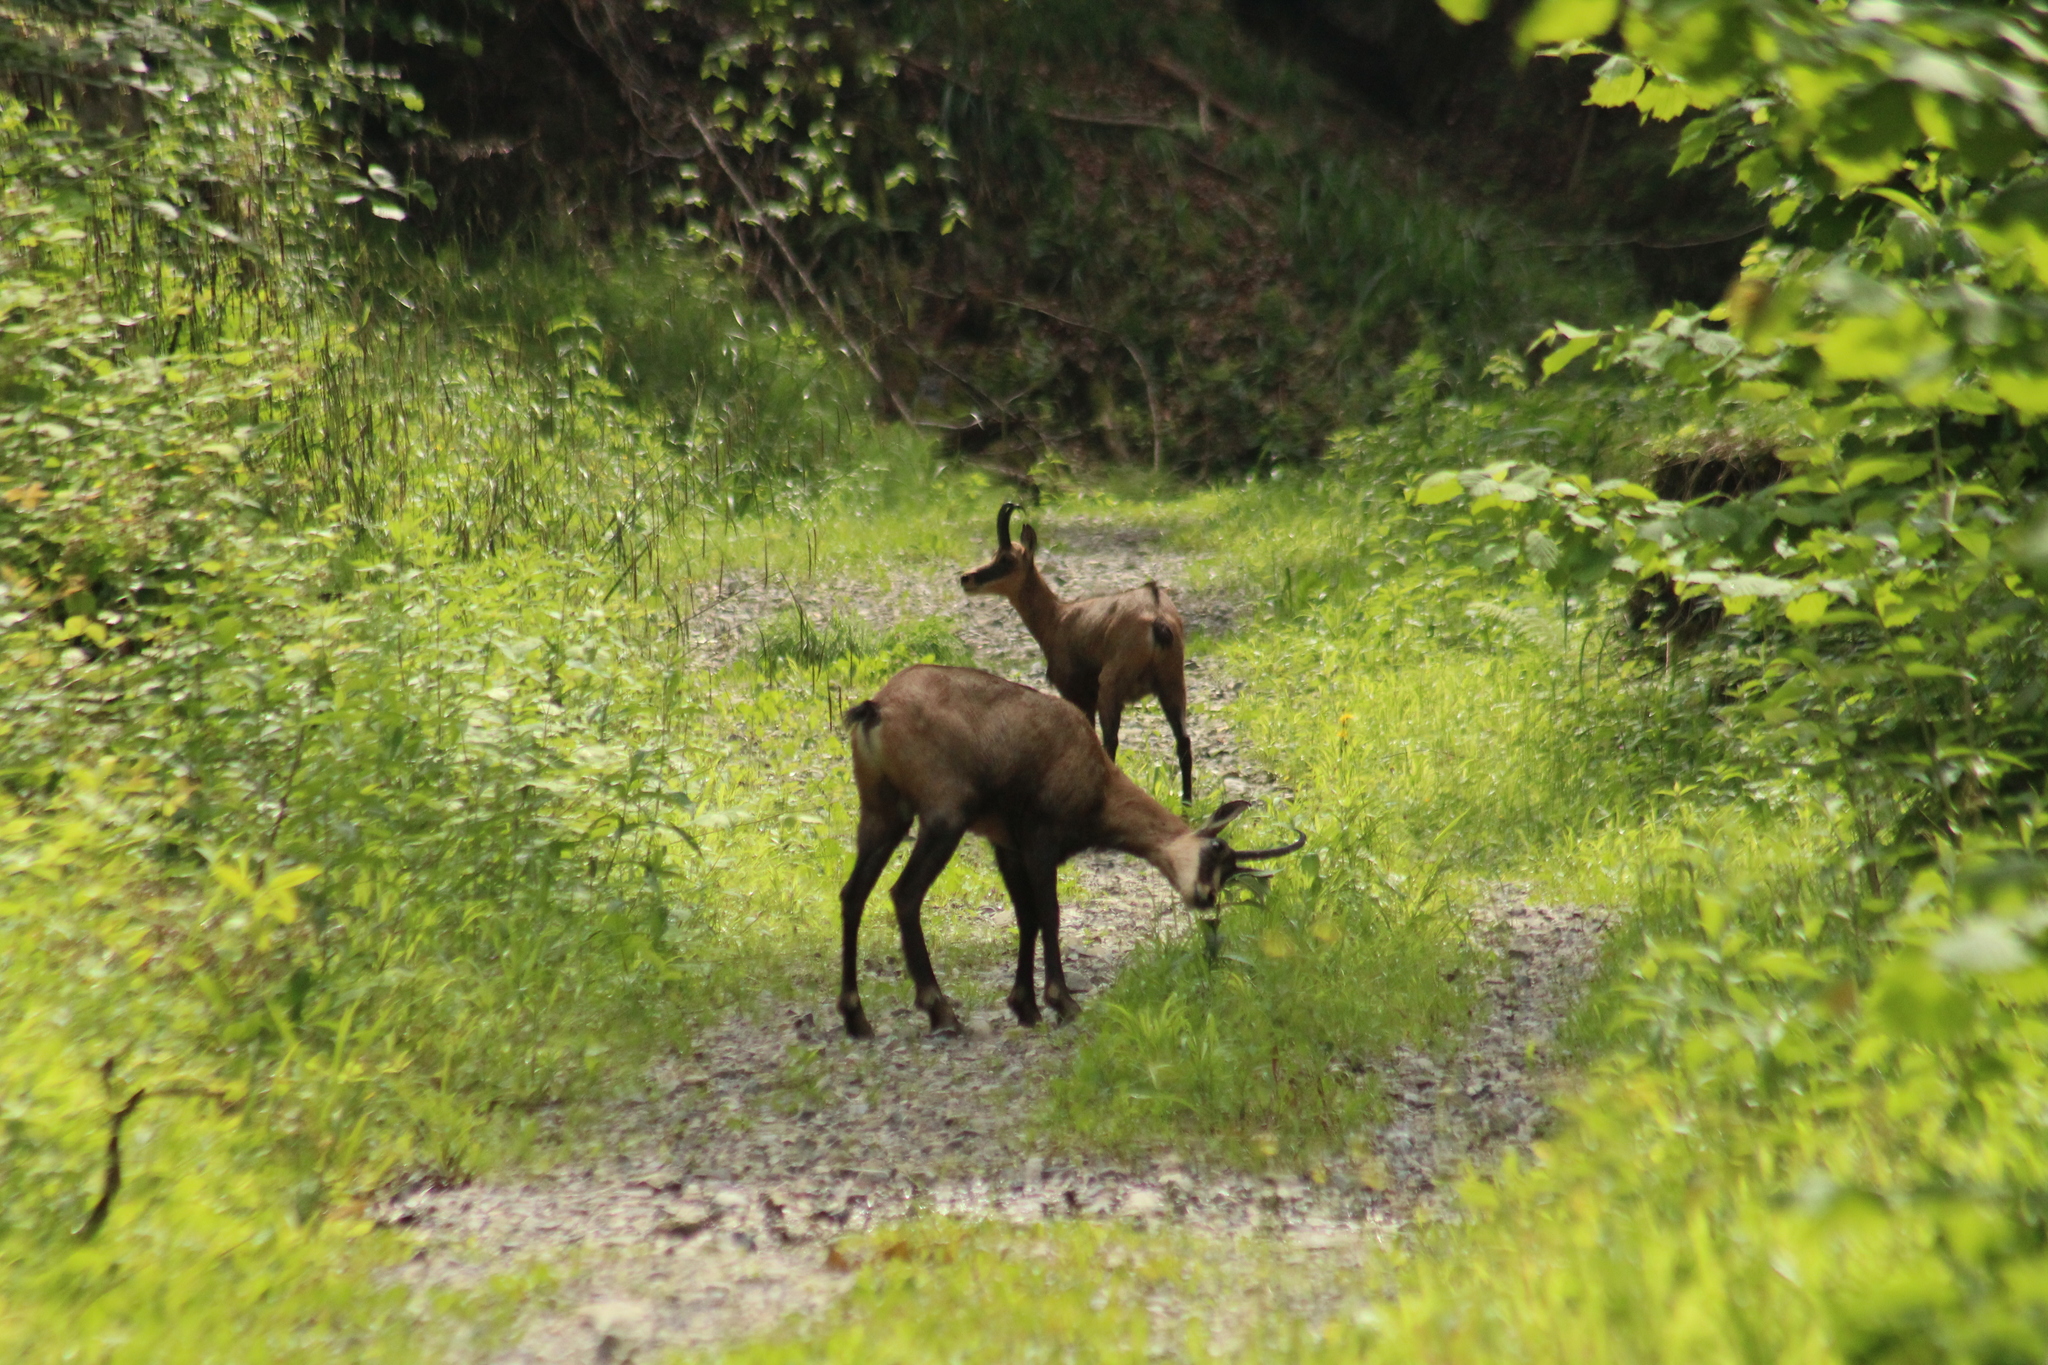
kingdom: Animalia
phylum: Chordata
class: Mammalia
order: Artiodactyla
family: Bovidae
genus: Rupicapra
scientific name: Rupicapra rupicapra
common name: Chamois
